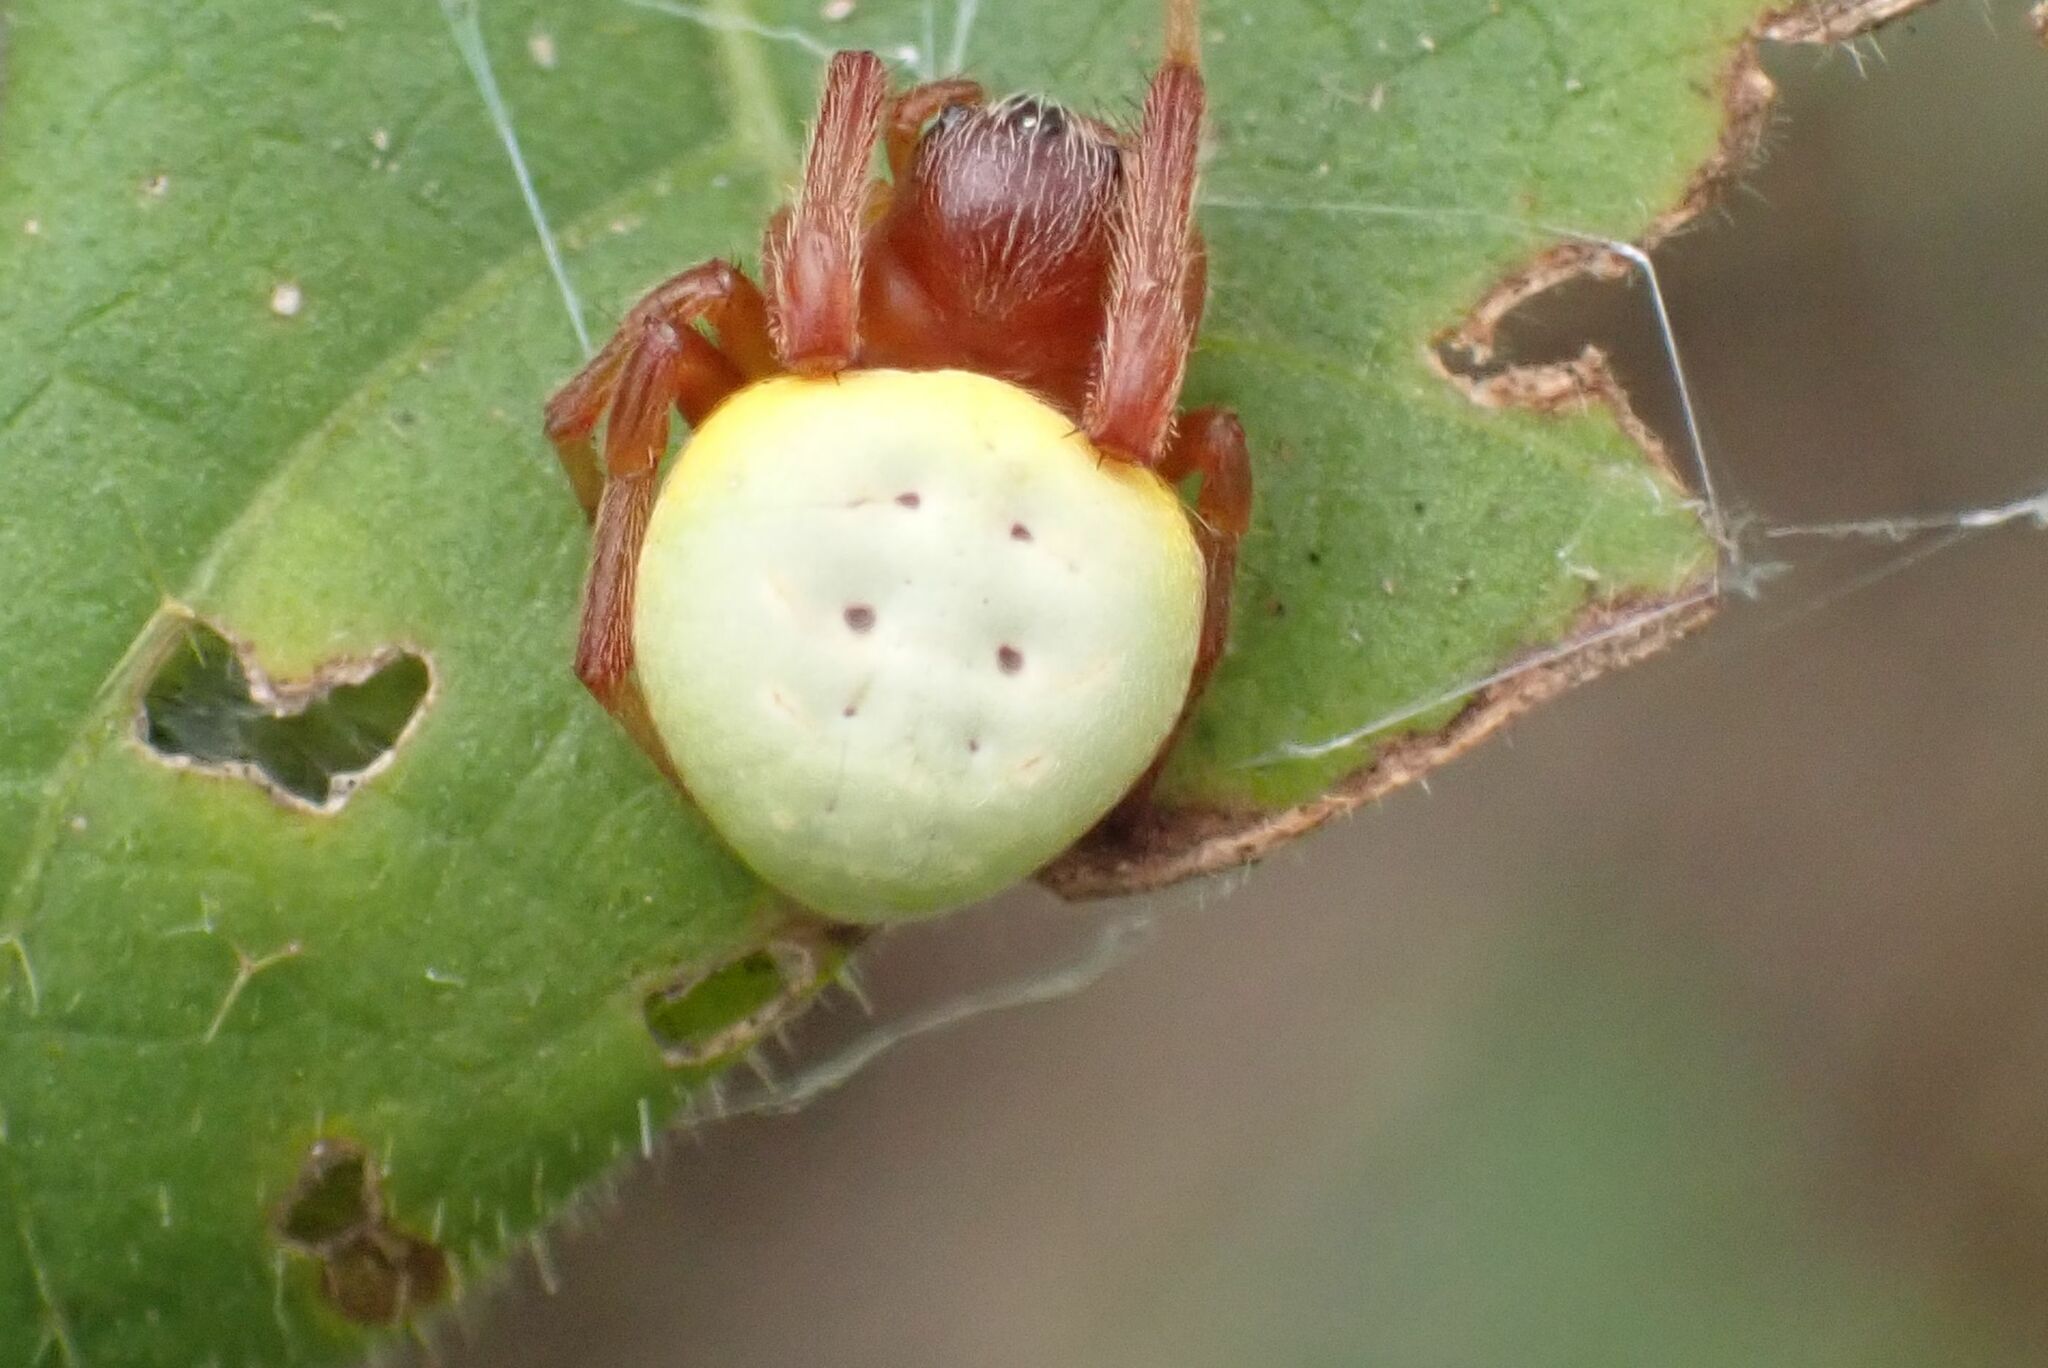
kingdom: Animalia
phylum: Arthropoda
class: Arachnida
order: Araneae
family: Araneidae
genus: Araneus
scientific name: Araneus apricus
